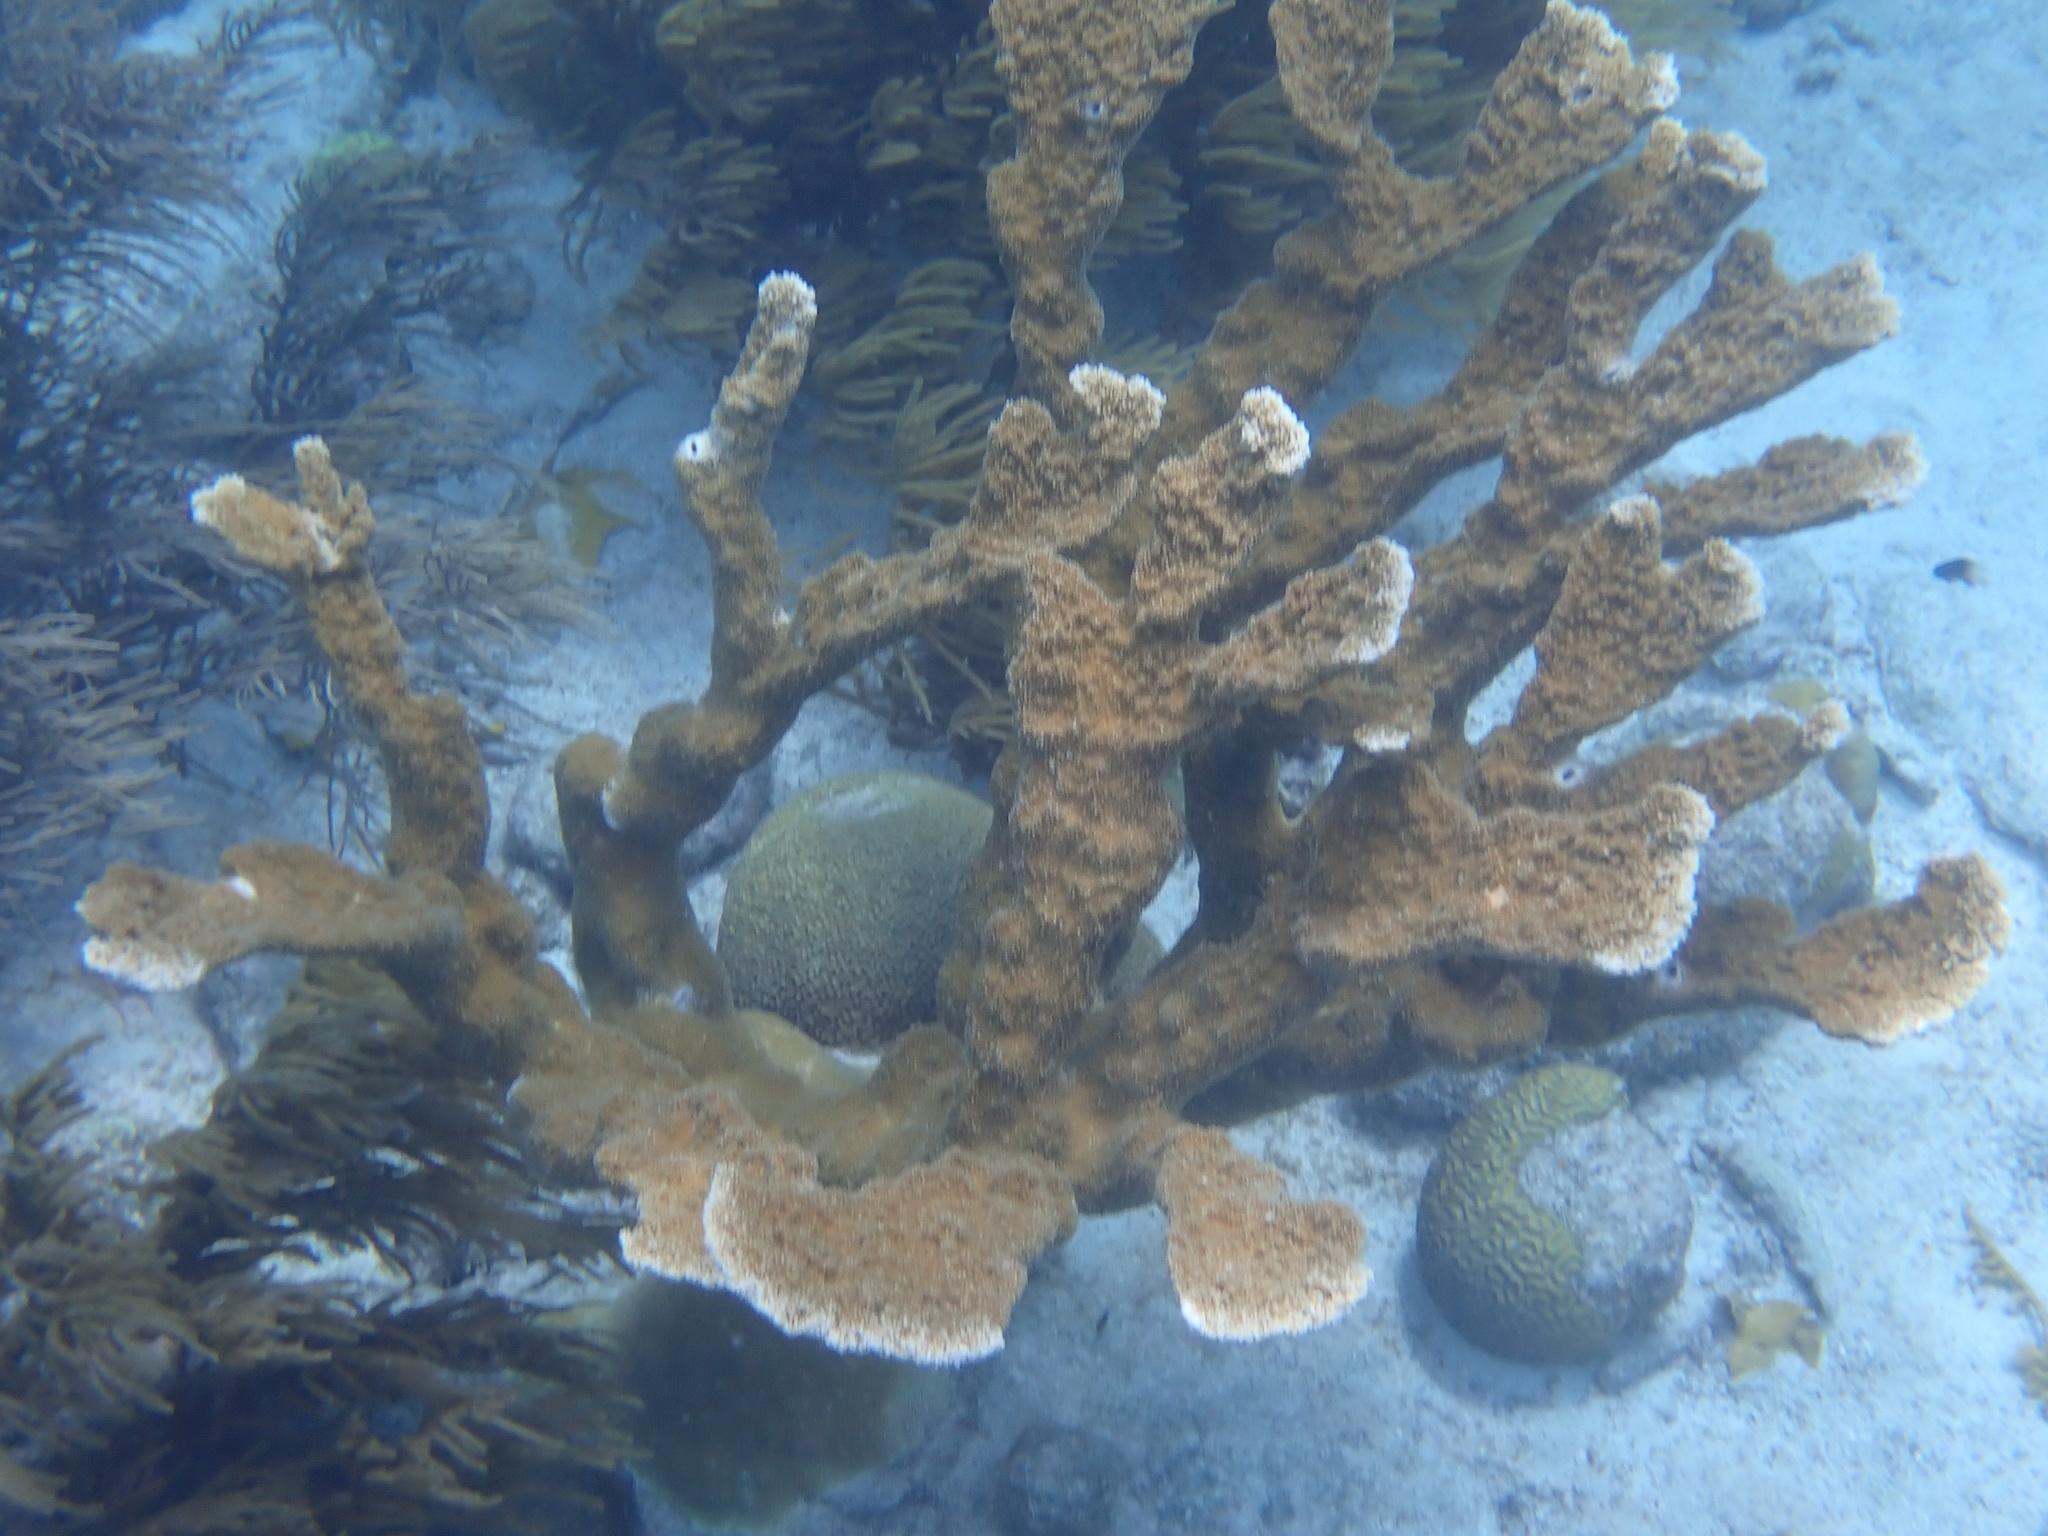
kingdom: Animalia
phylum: Cnidaria
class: Anthozoa
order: Scleractinia
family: Acroporidae
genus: Acropora
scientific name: Acropora palmata
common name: Elkhorn coral
